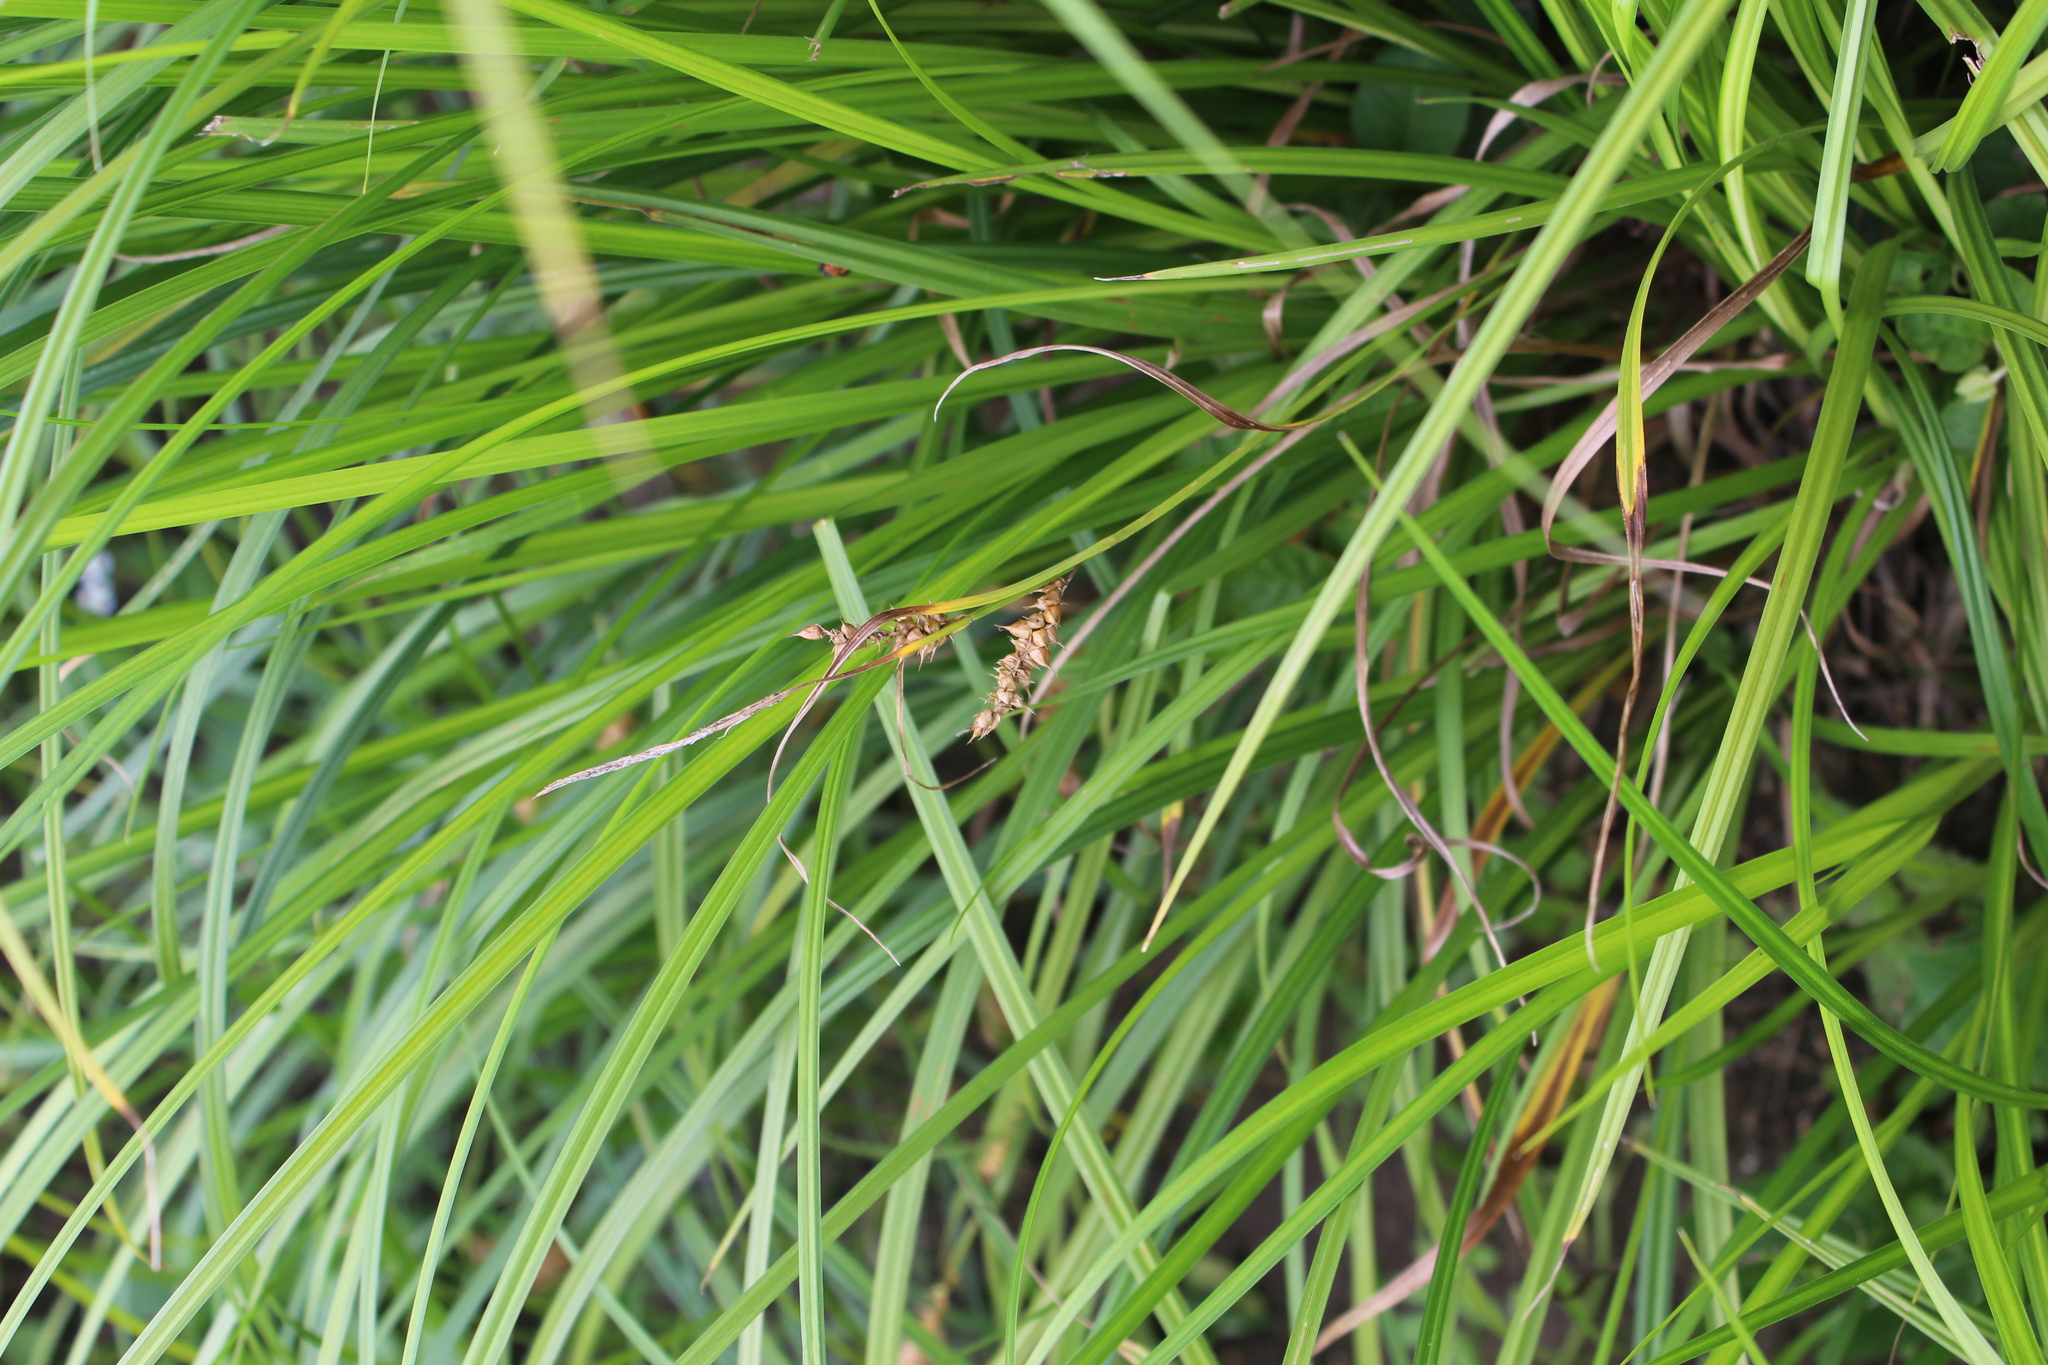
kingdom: Plantae
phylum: Tracheophyta
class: Liliopsida
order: Poales
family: Cyperaceae
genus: Carex
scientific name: Carex vesicaria
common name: Bladder-sedge
